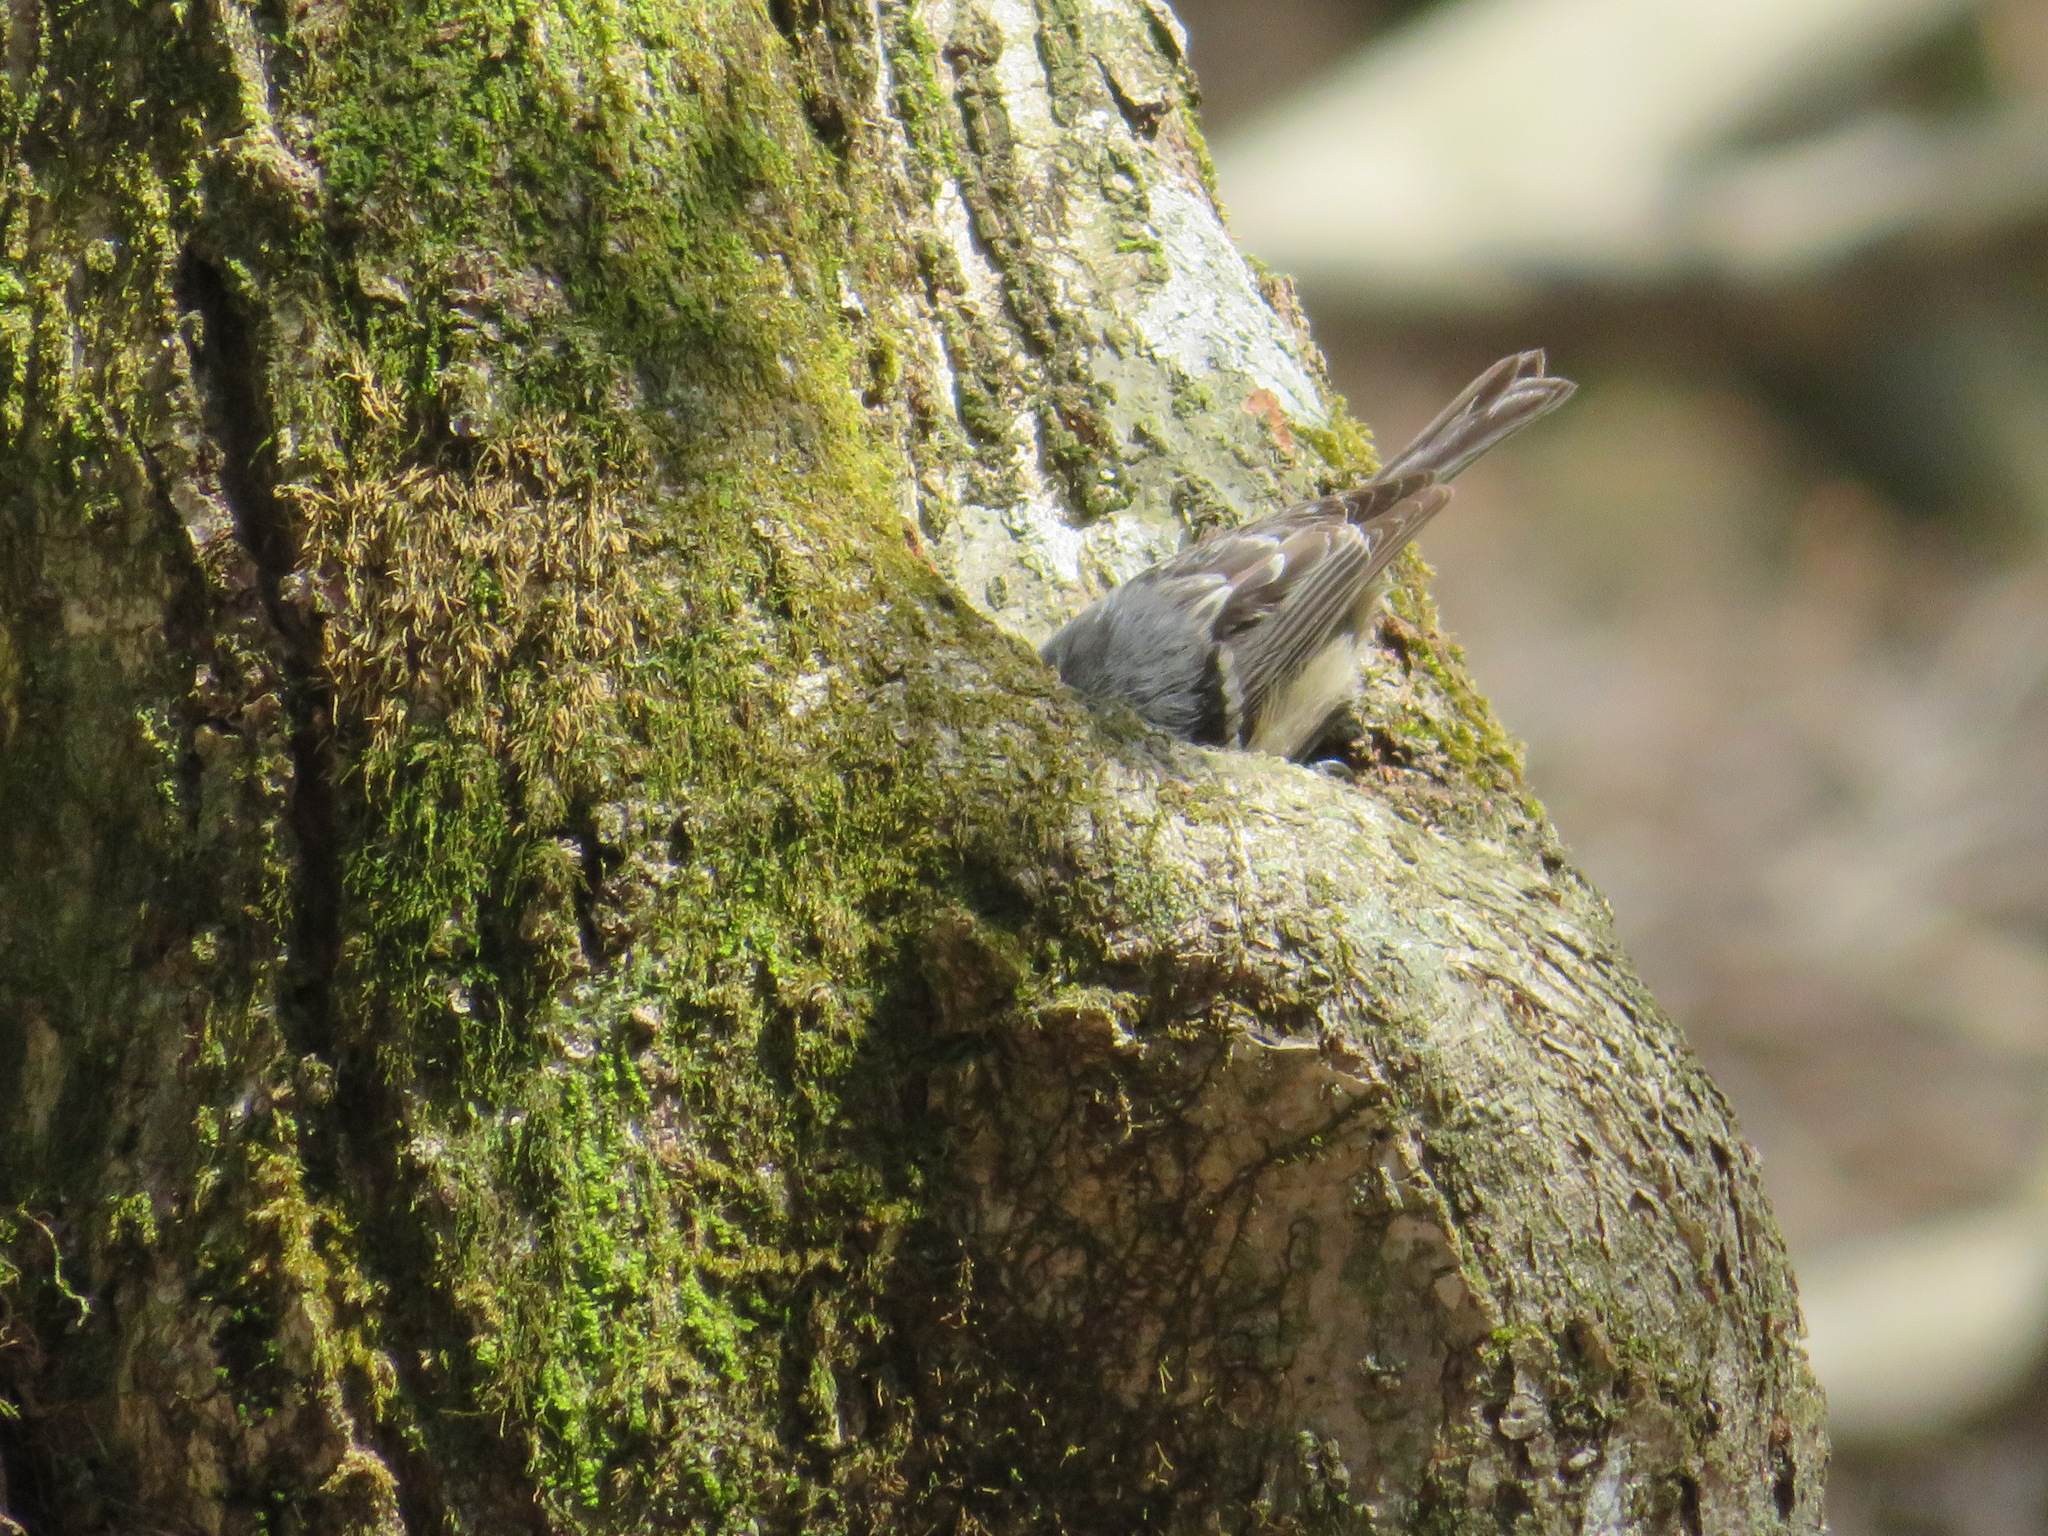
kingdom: Animalia
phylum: Chordata
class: Aves
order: Passeriformes
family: Paridae
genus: Periparus
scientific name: Periparus ater
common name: Coal tit
